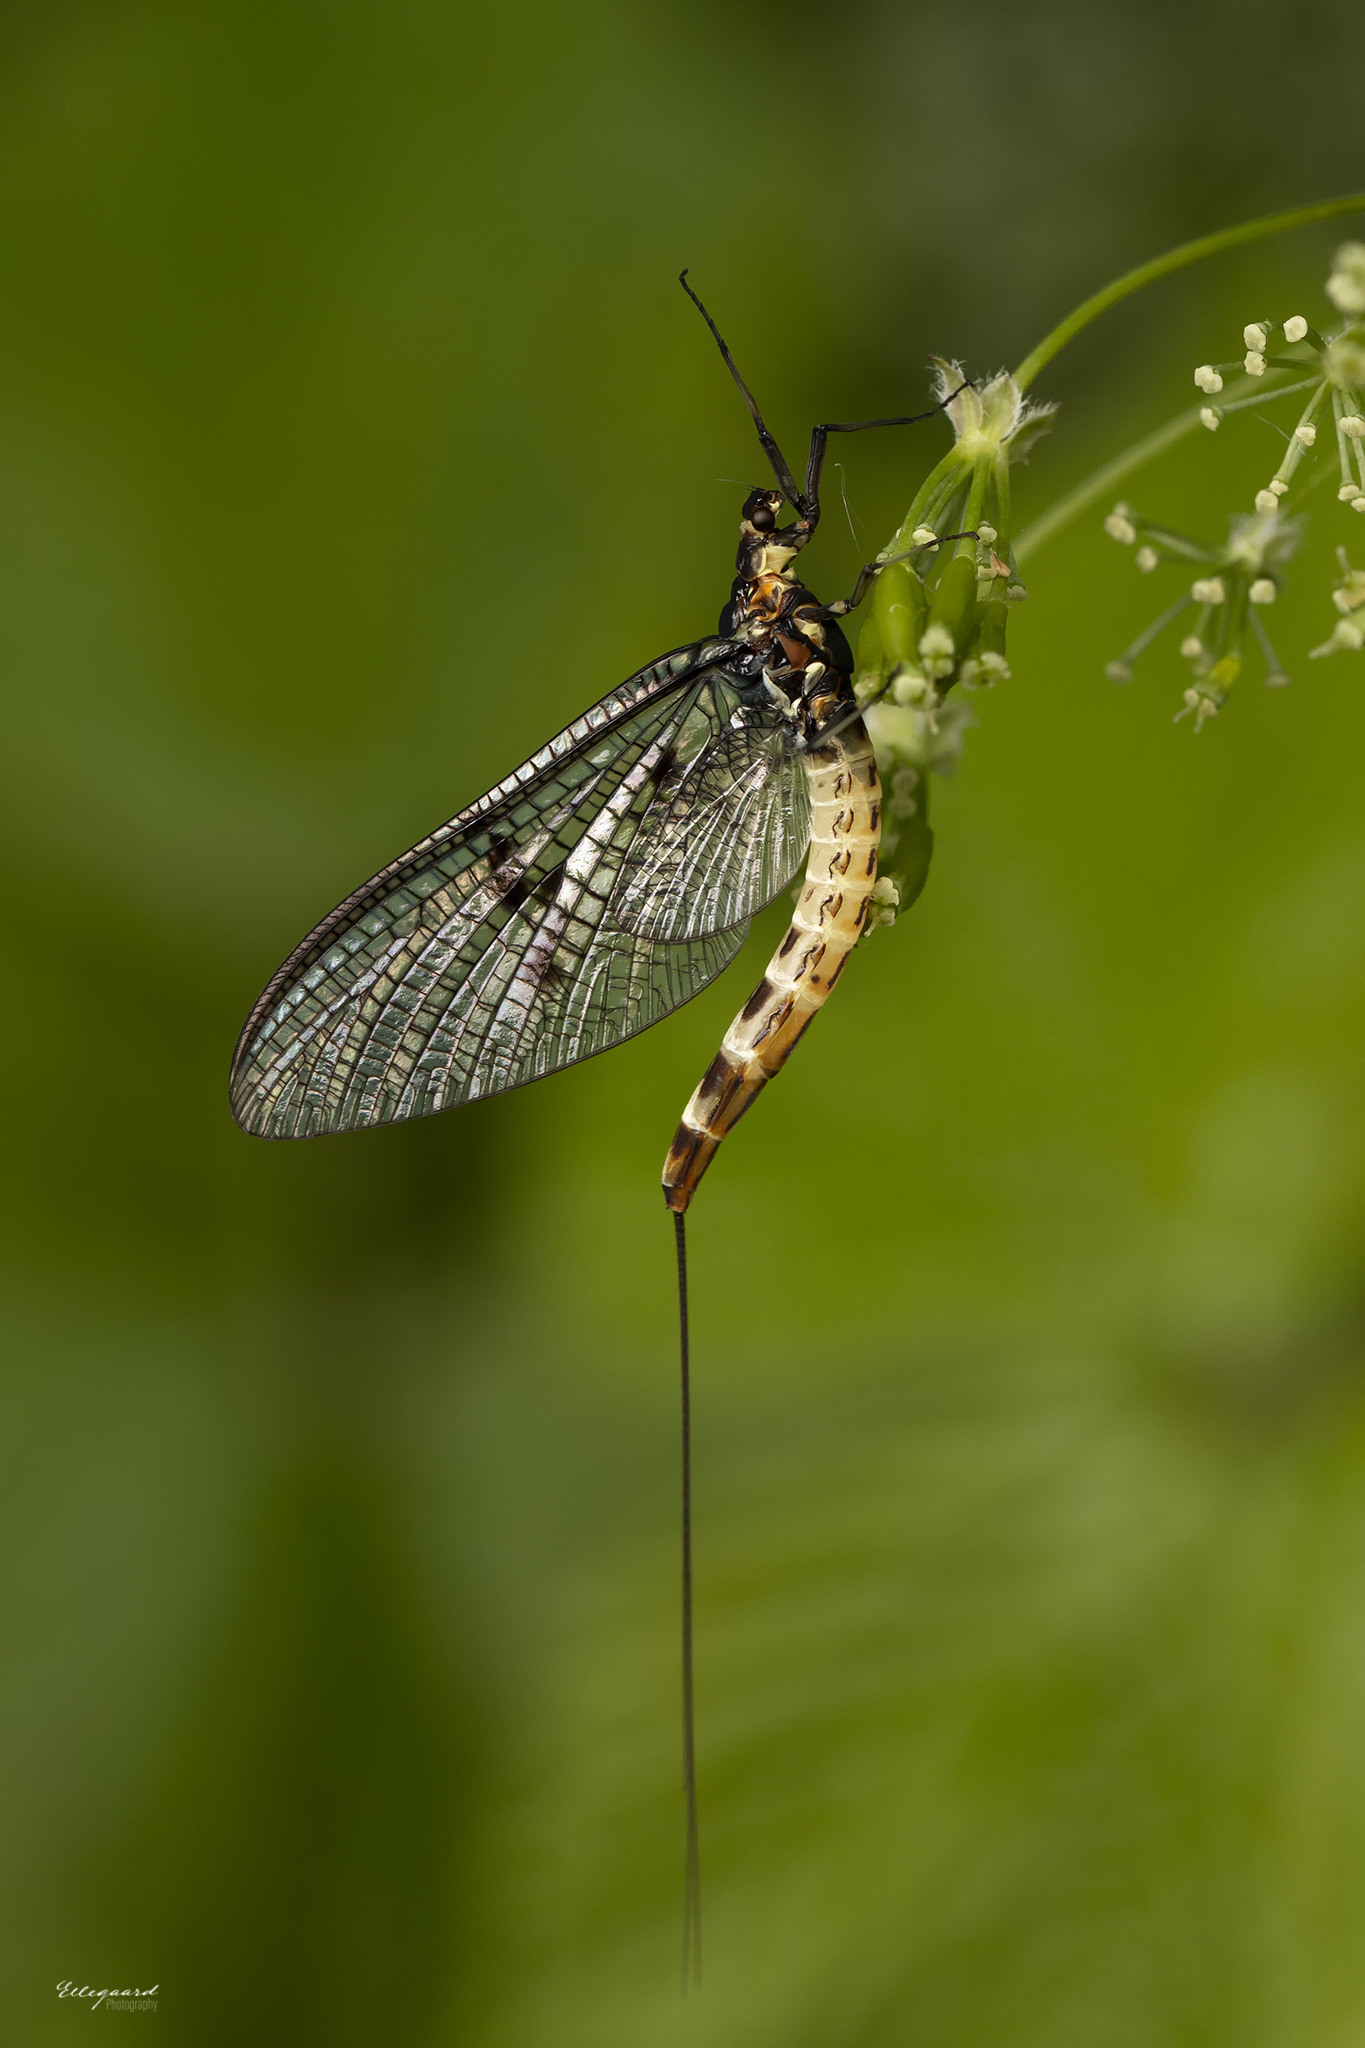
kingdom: Animalia
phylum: Arthropoda
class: Insecta
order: Ephemeroptera
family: Ephemeridae
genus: Ephemera
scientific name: Ephemera danica
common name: Green dun
